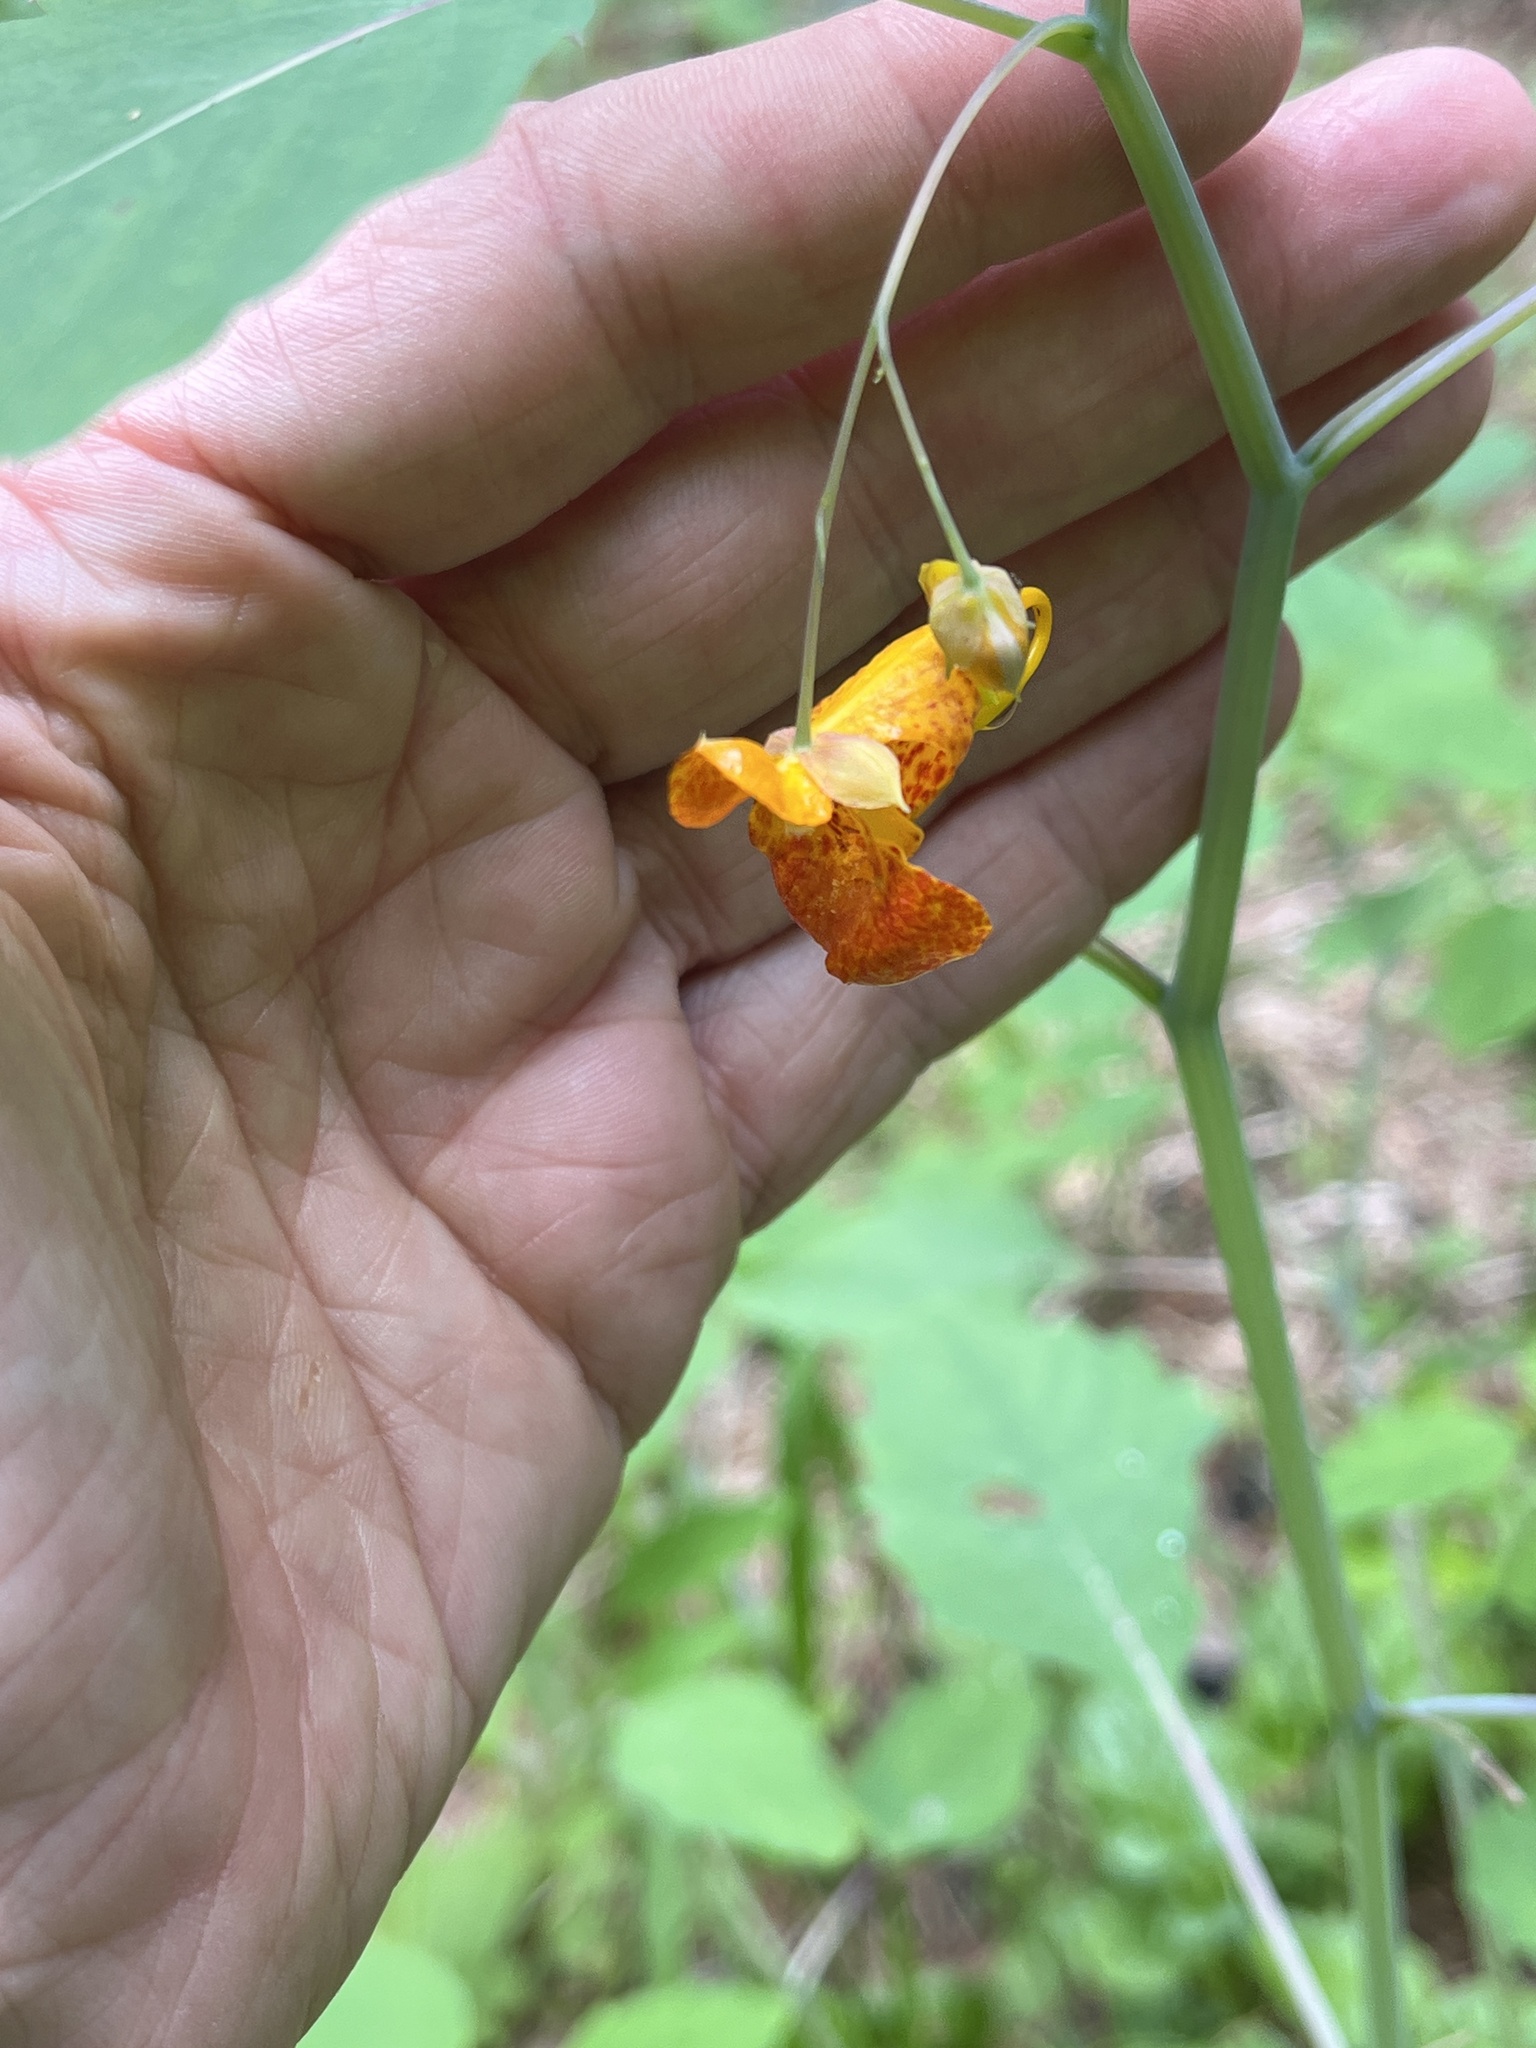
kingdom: Plantae
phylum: Tracheophyta
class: Magnoliopsida
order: Ericales
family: Balsaminaceae
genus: Impatiens
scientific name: Impatiens capensis
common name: Orange balsam
